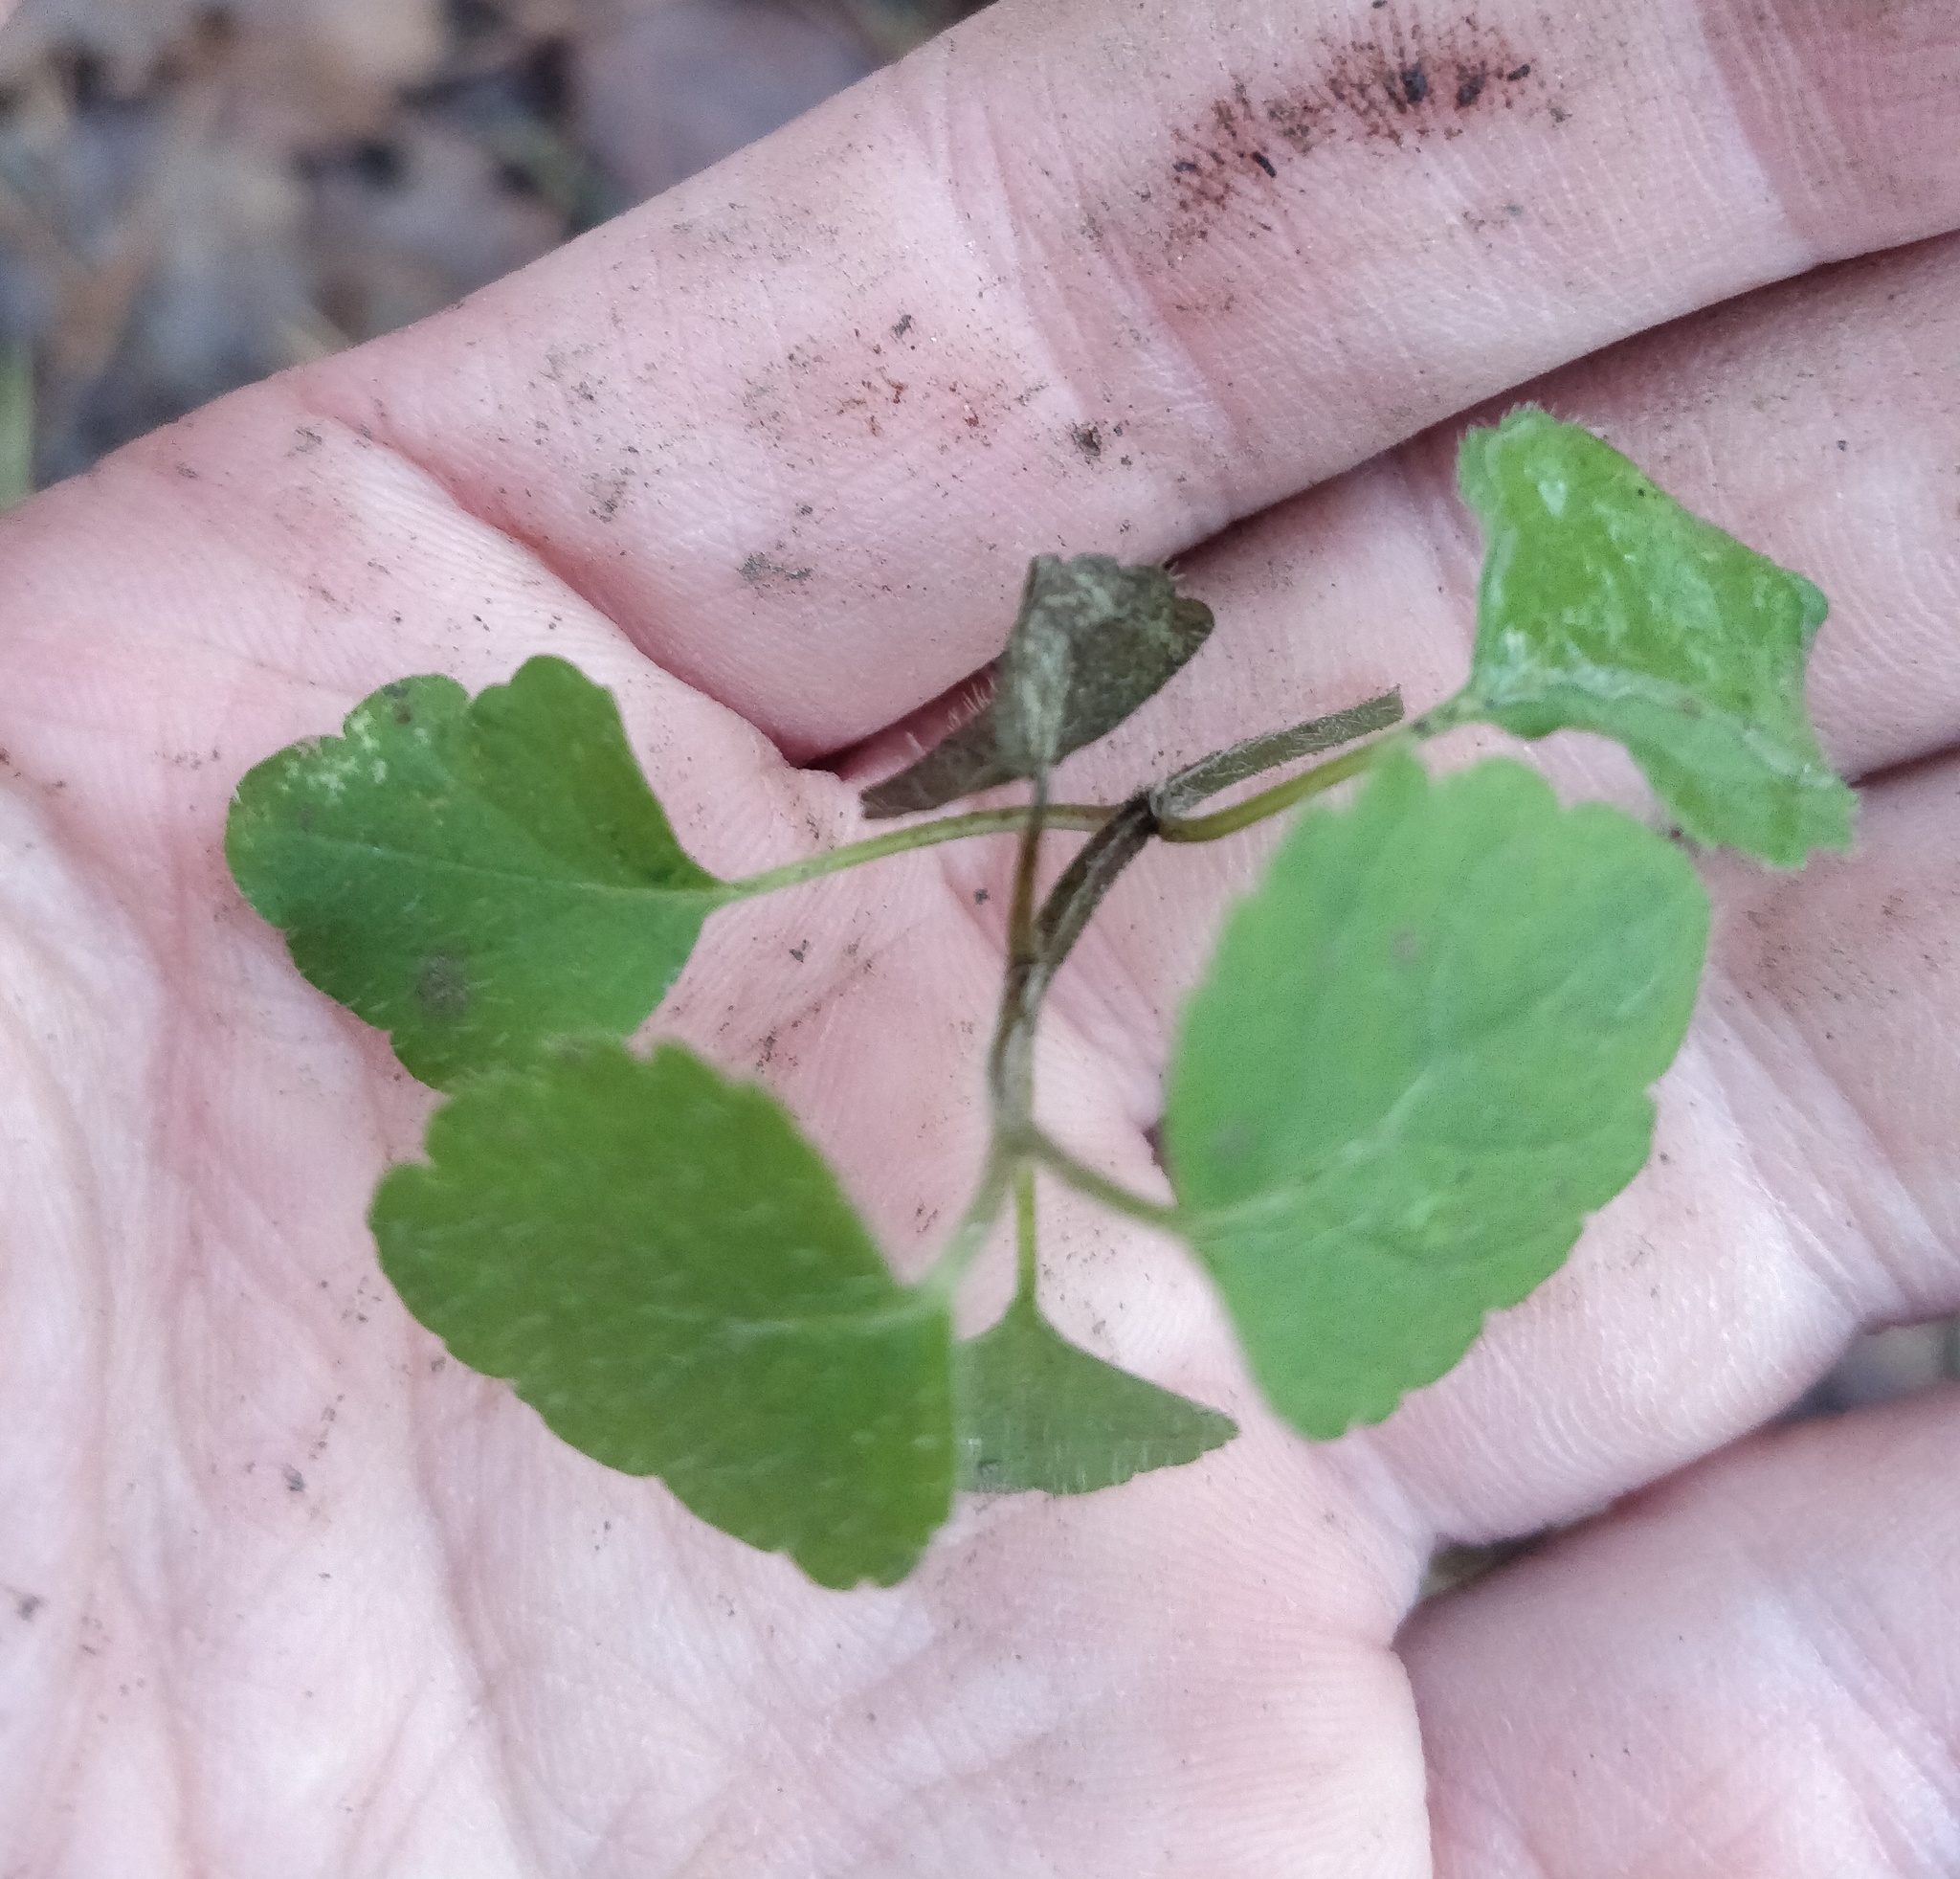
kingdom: Plantae
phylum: Tracheophyta
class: Magnoliopsida
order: Lamiales
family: Lamiaceae
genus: Lamium
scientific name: Lamium galeobdolon
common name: Yellow archangel
